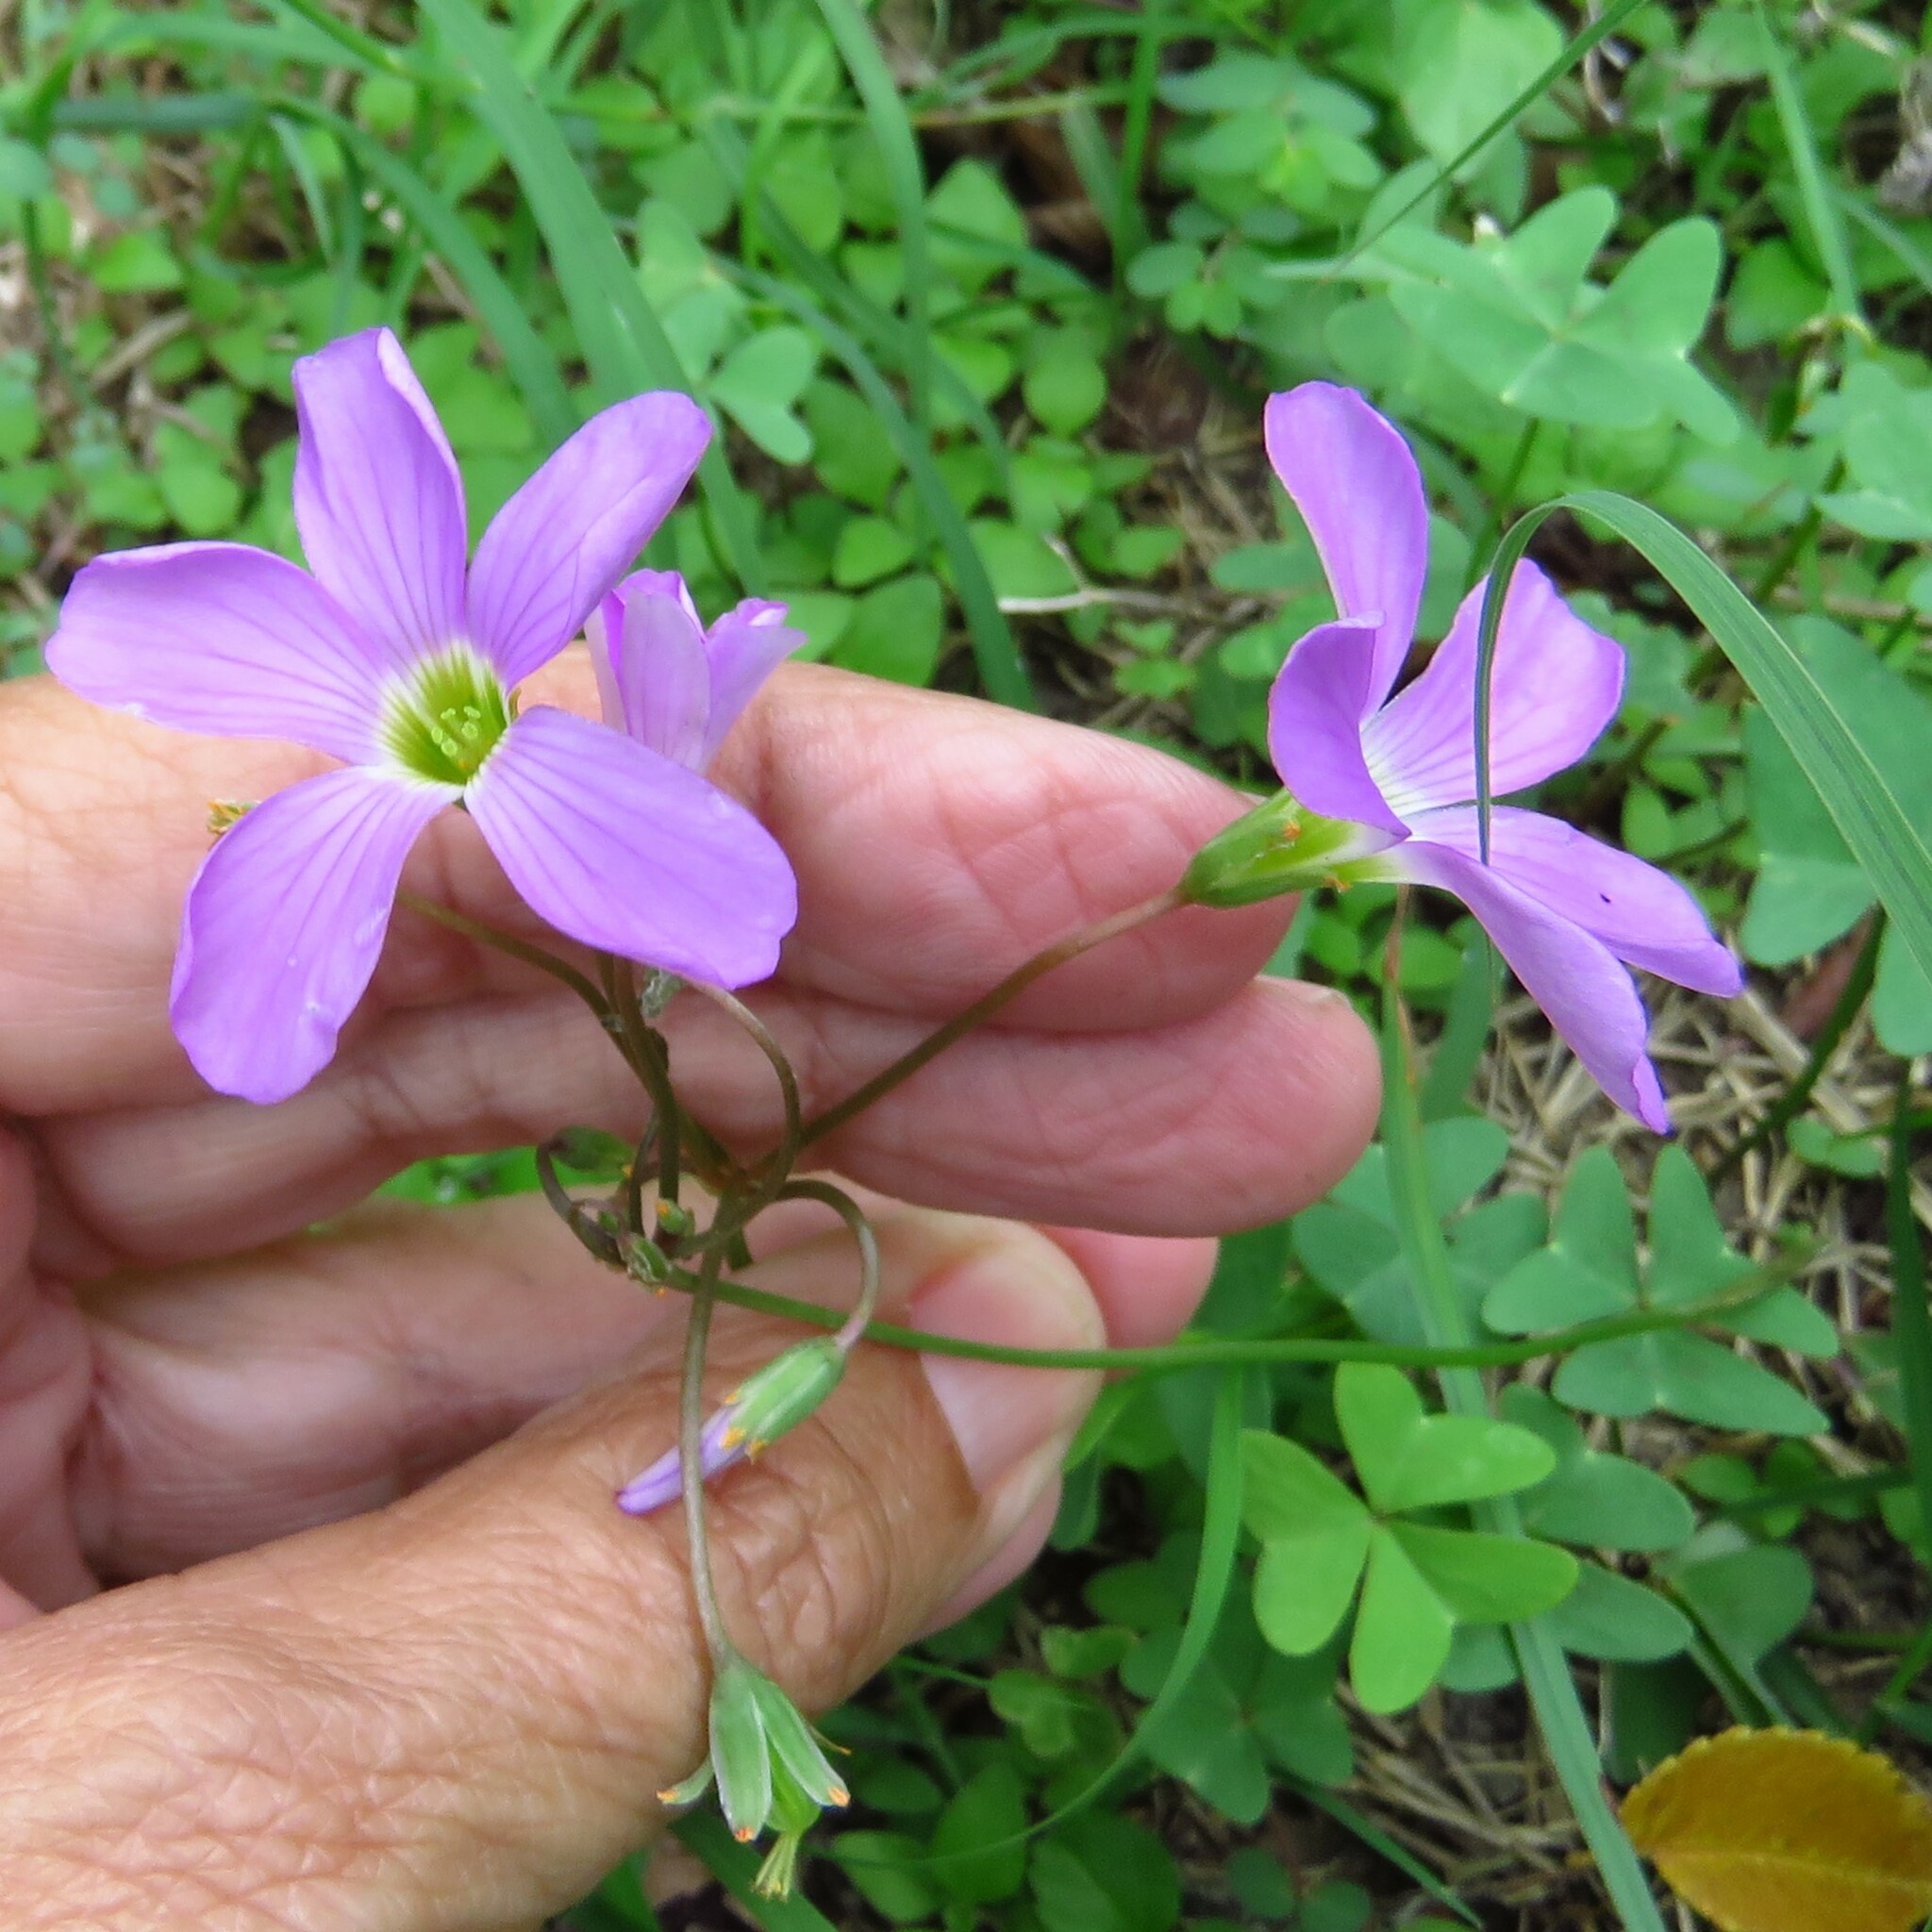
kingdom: Plantae
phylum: Tracheophyta
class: Magnoliopsida
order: Oxalidales
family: Oxalidaceae
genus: Oxalis
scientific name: Oxalis drummondii
